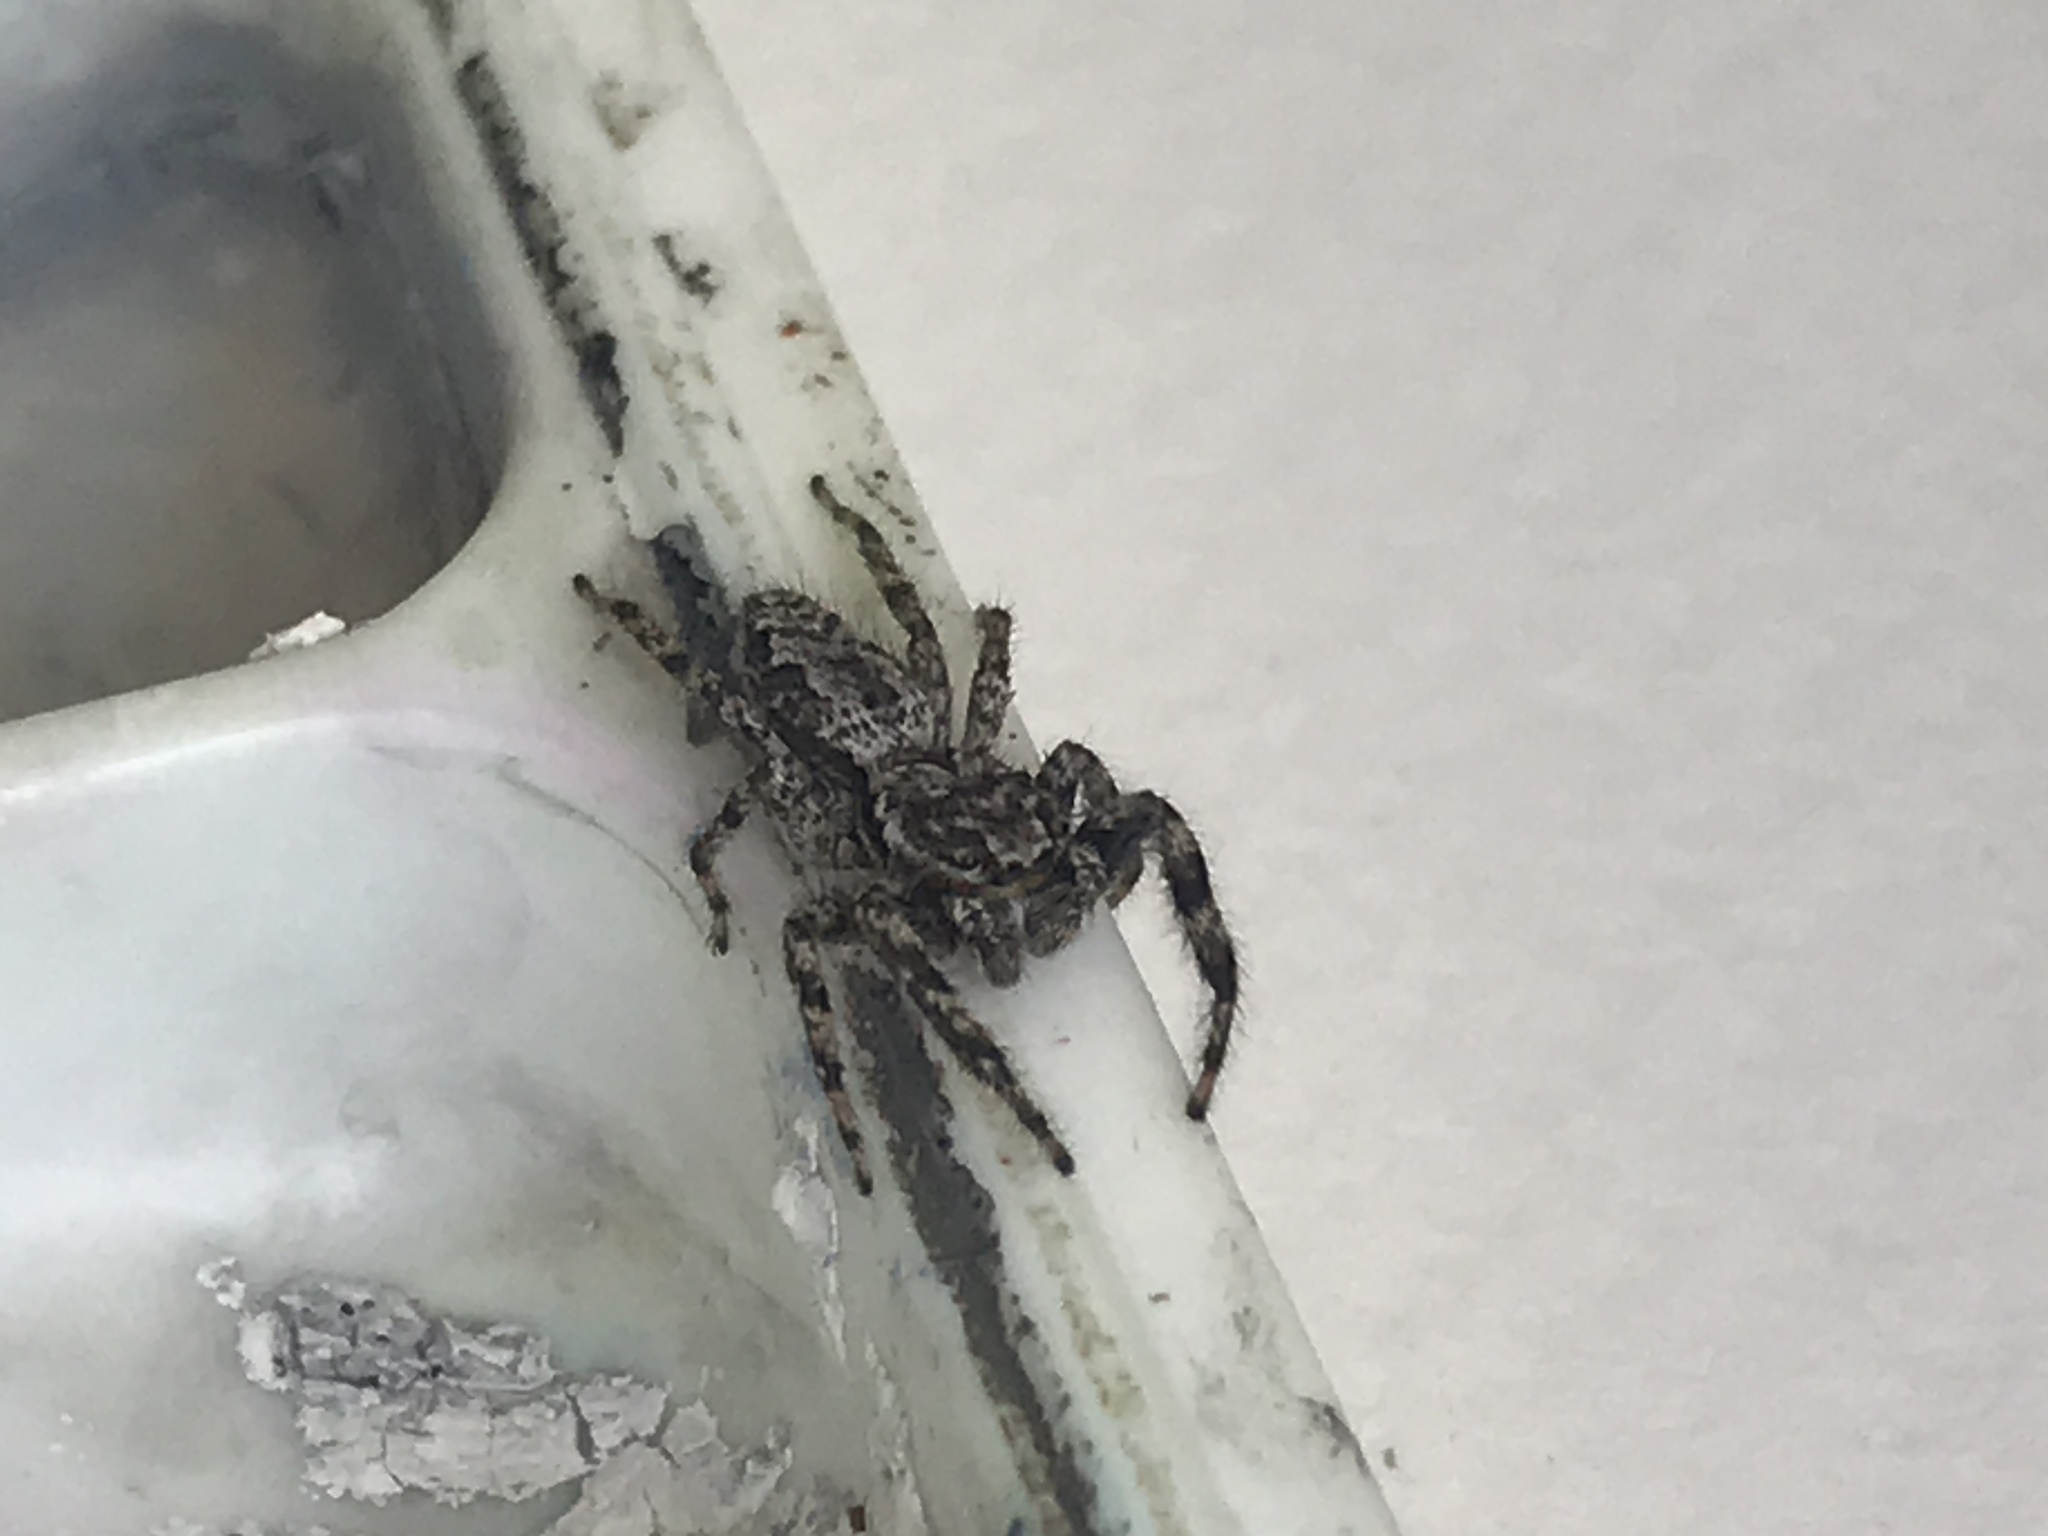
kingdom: Animalia
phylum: Arthropoda
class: Arachnida
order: Araneae
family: Salticidae
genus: Platycryptus
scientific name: Platycryptus undatus
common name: Tan jumping spider
